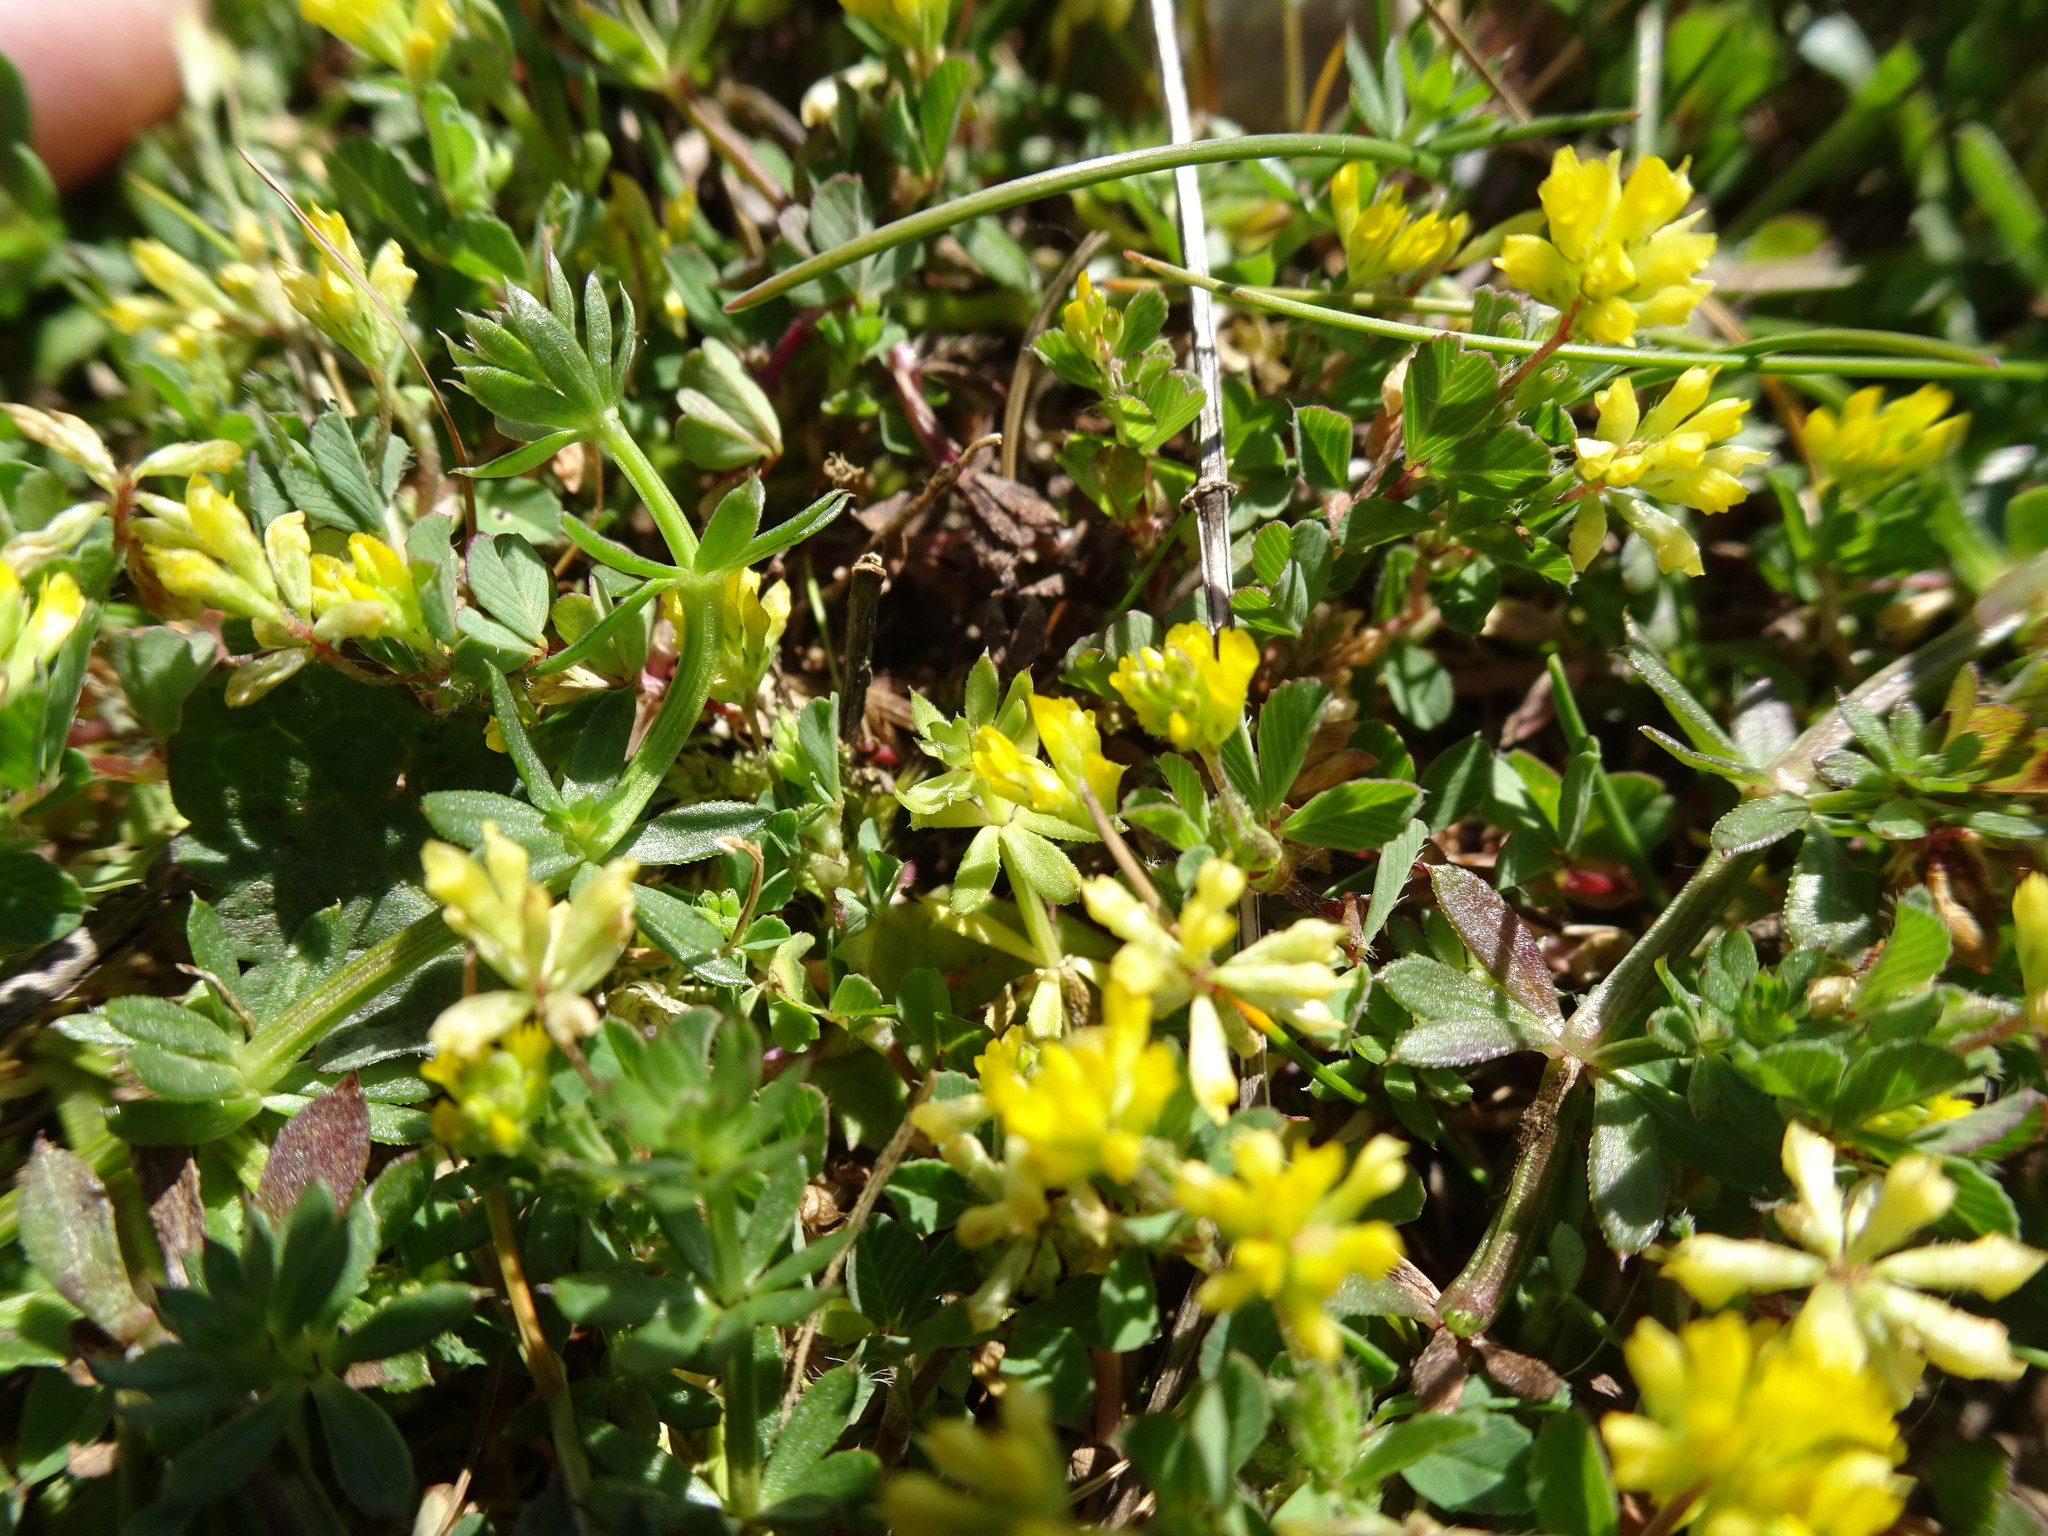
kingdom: Plantae
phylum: Tracheophyta
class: Magnoliopsida
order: Fabales
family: Fabaceae
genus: Trifolium
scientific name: Trifolium dubium
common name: Suckling clover
